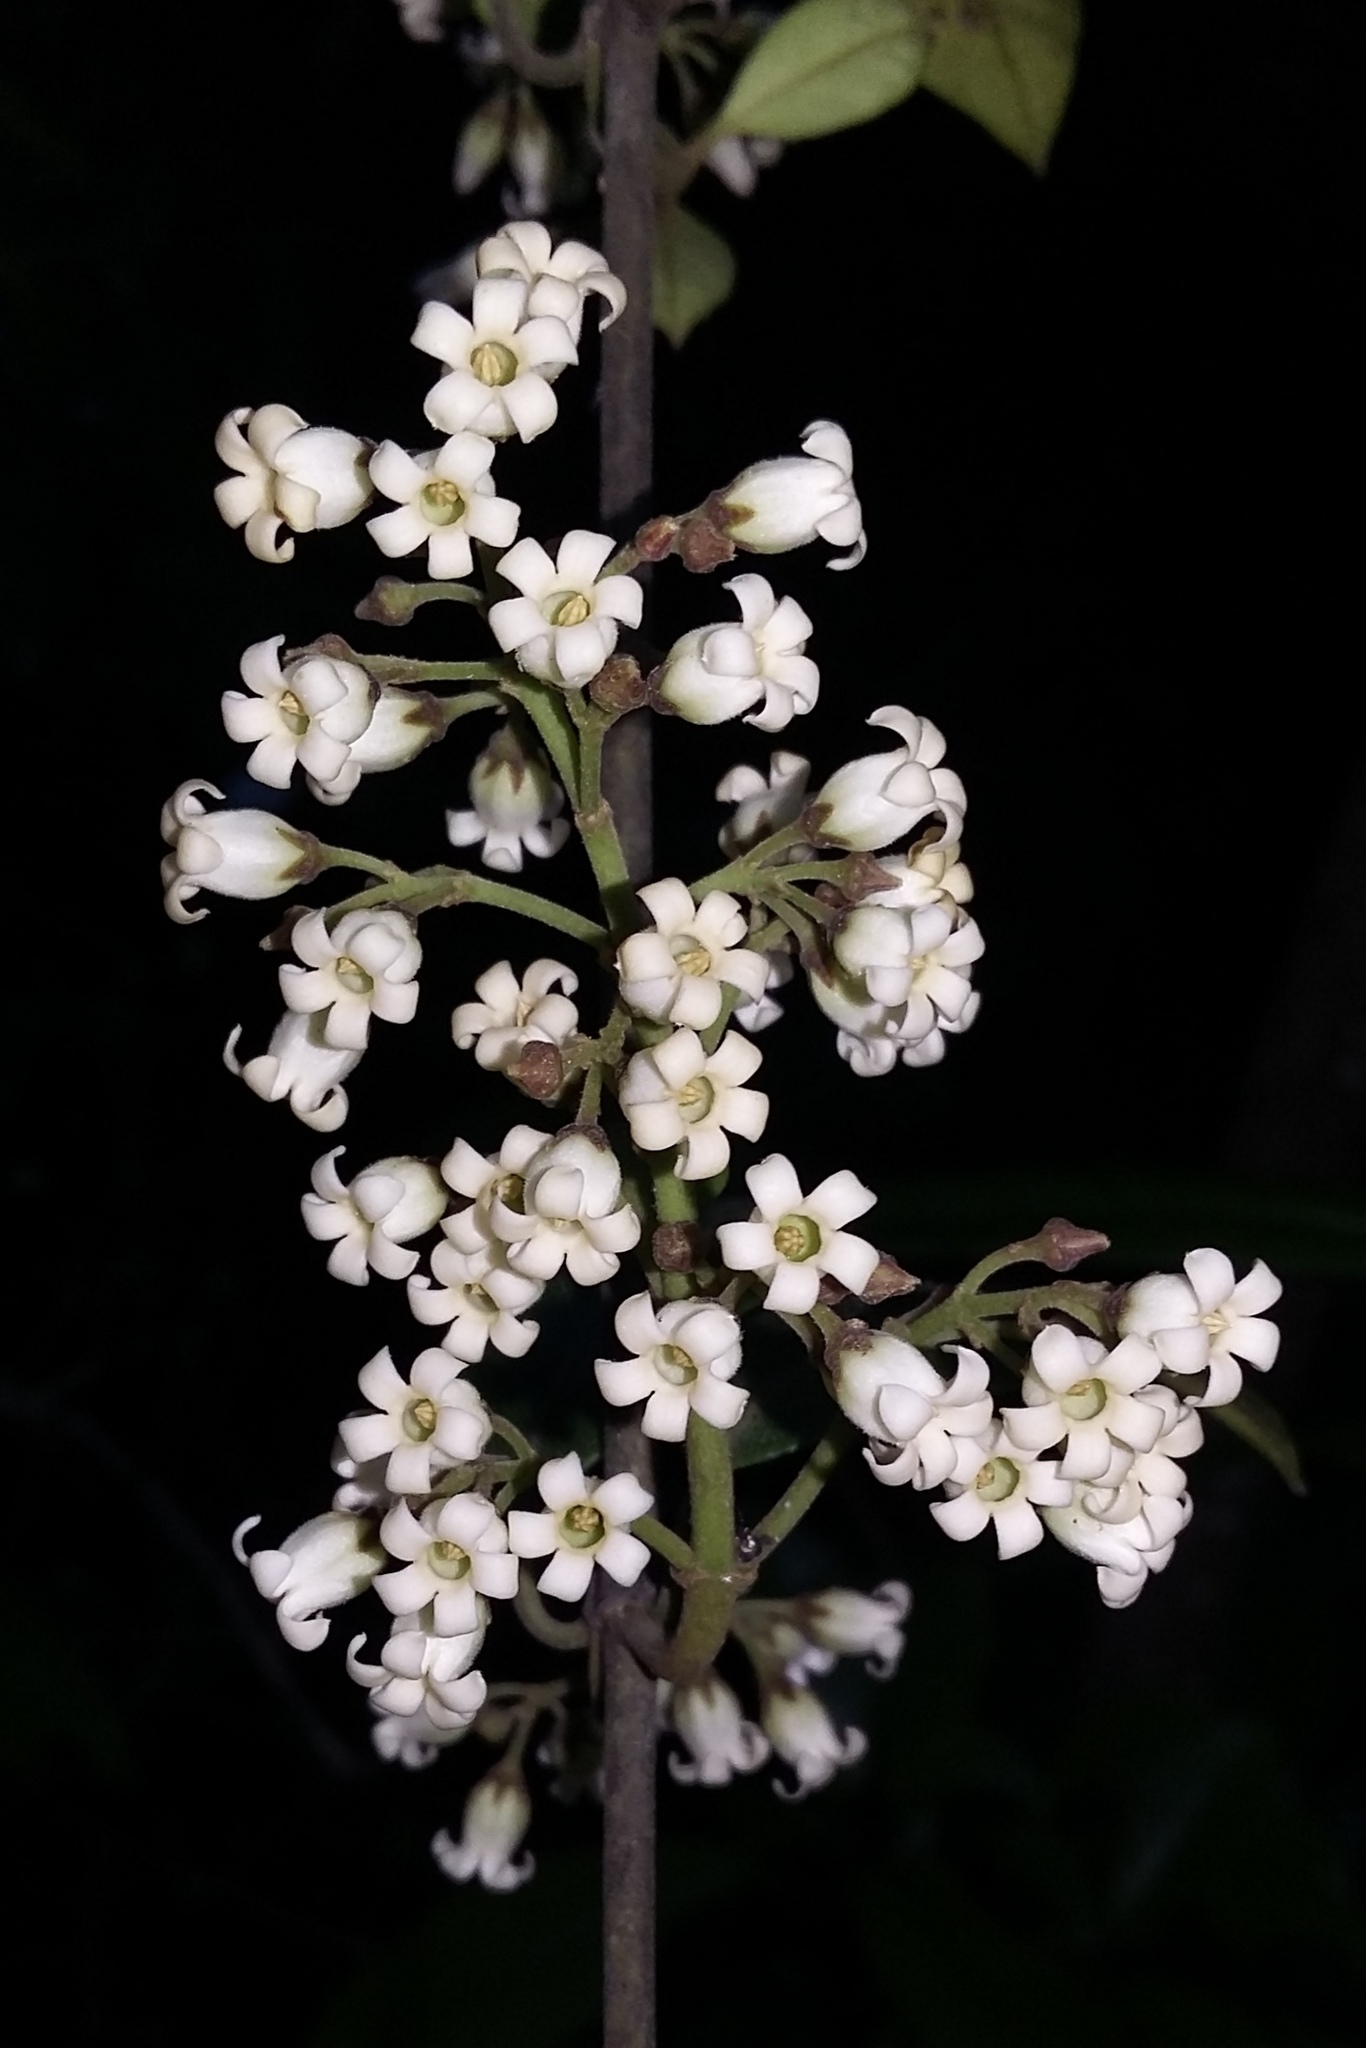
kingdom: Plantae
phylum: Tracheophyta
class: Magnoliopsida
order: Gentianales
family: Apocynaceae
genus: Parsonsia
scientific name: Parsonsia heterophylla
